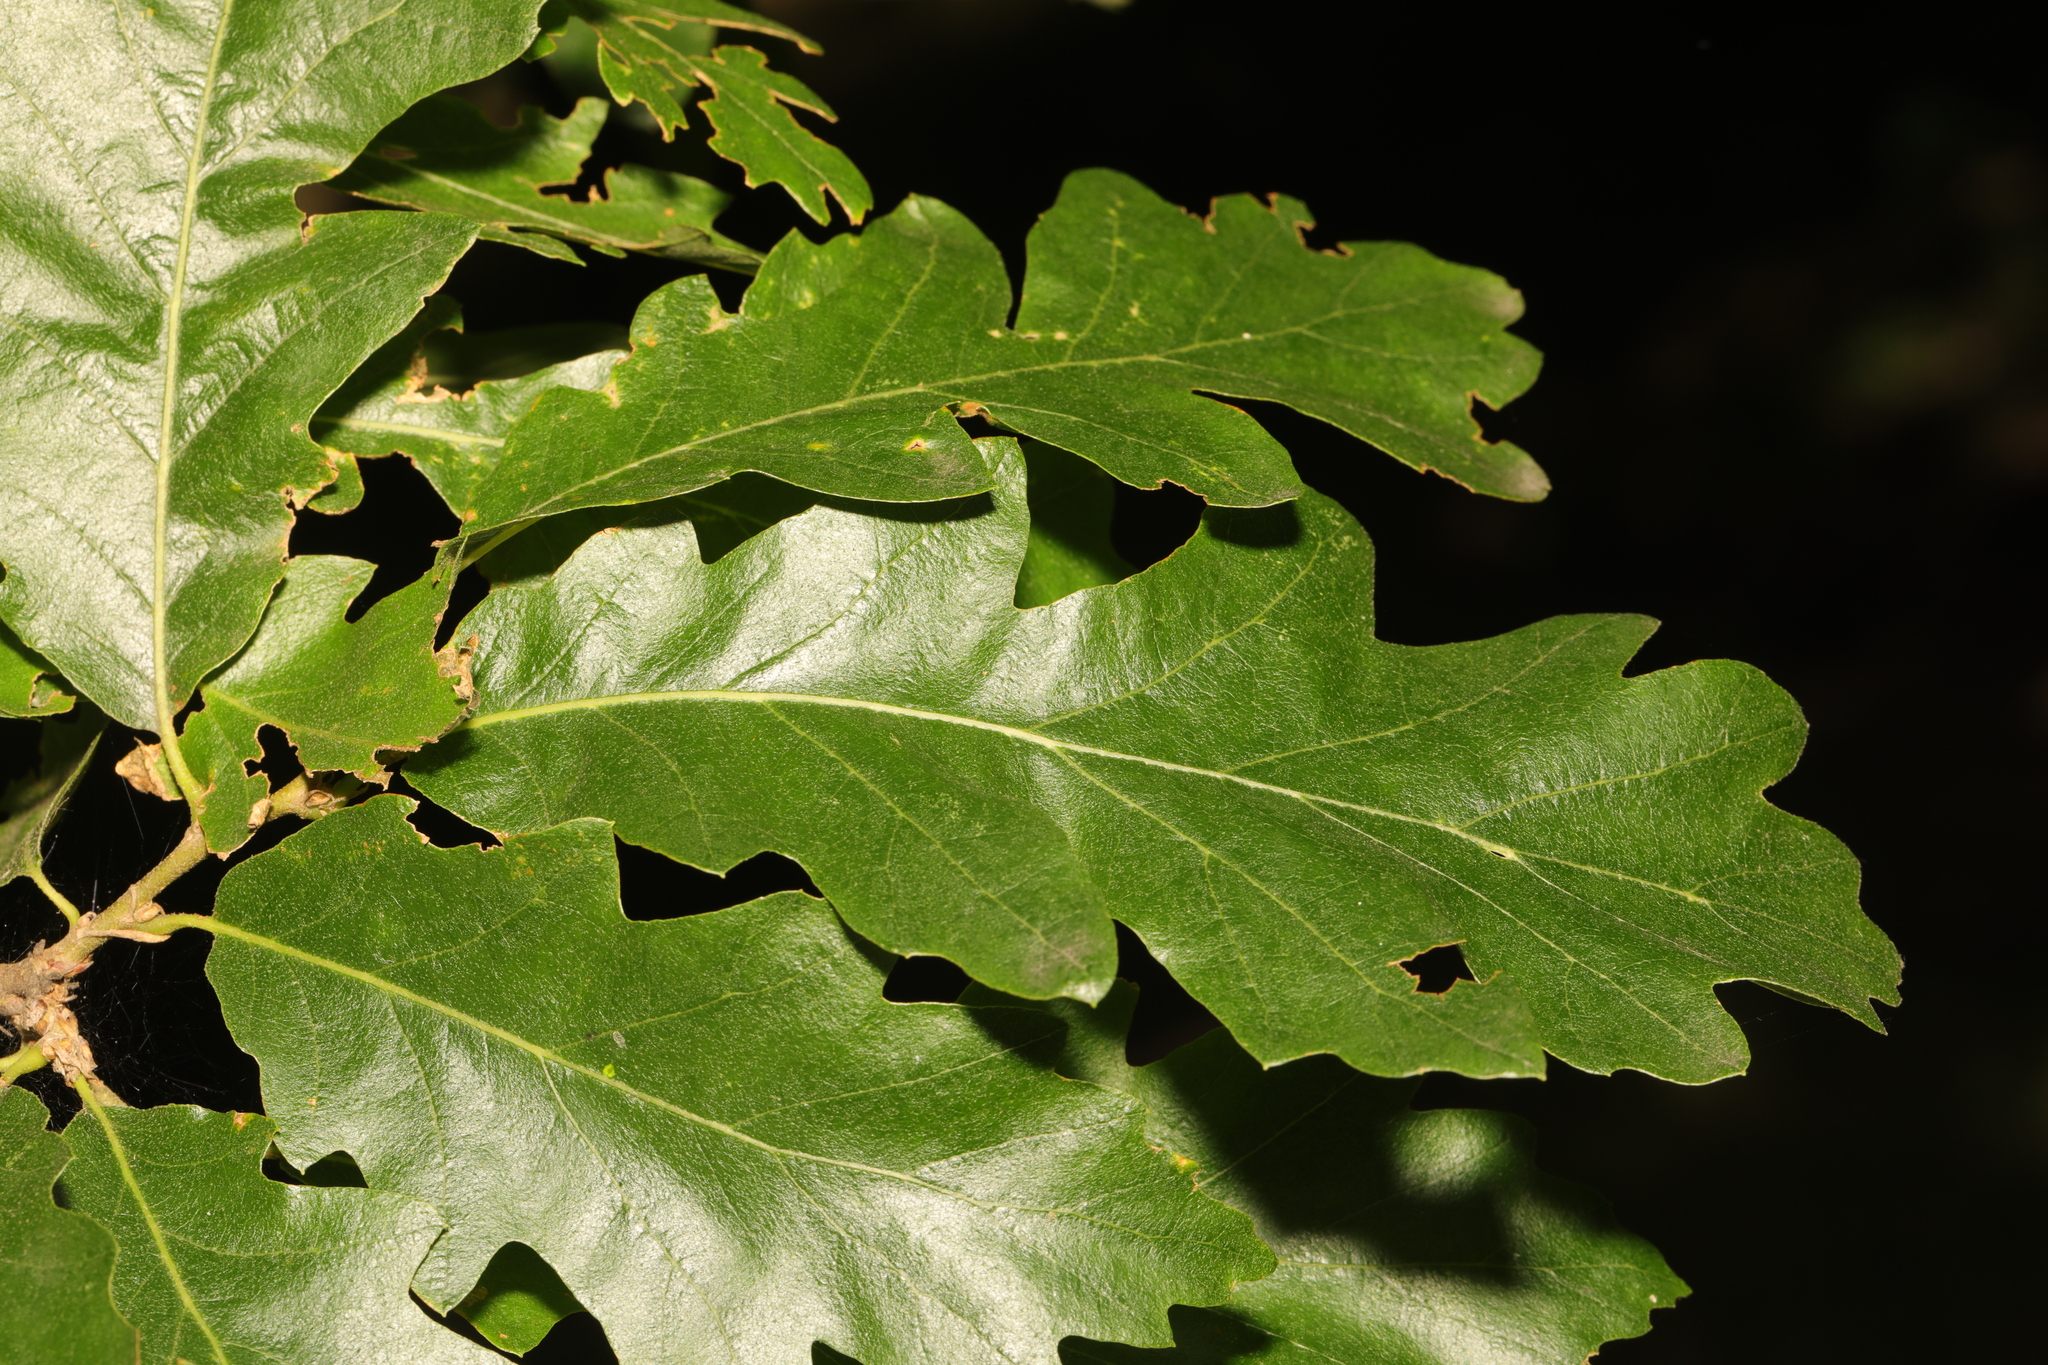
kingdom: Plantae
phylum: Tracheophyta
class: Magnoliopsida
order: Fagales
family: Fagaceae
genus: Quercus
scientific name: Quercus cerris
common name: Turkey oak
